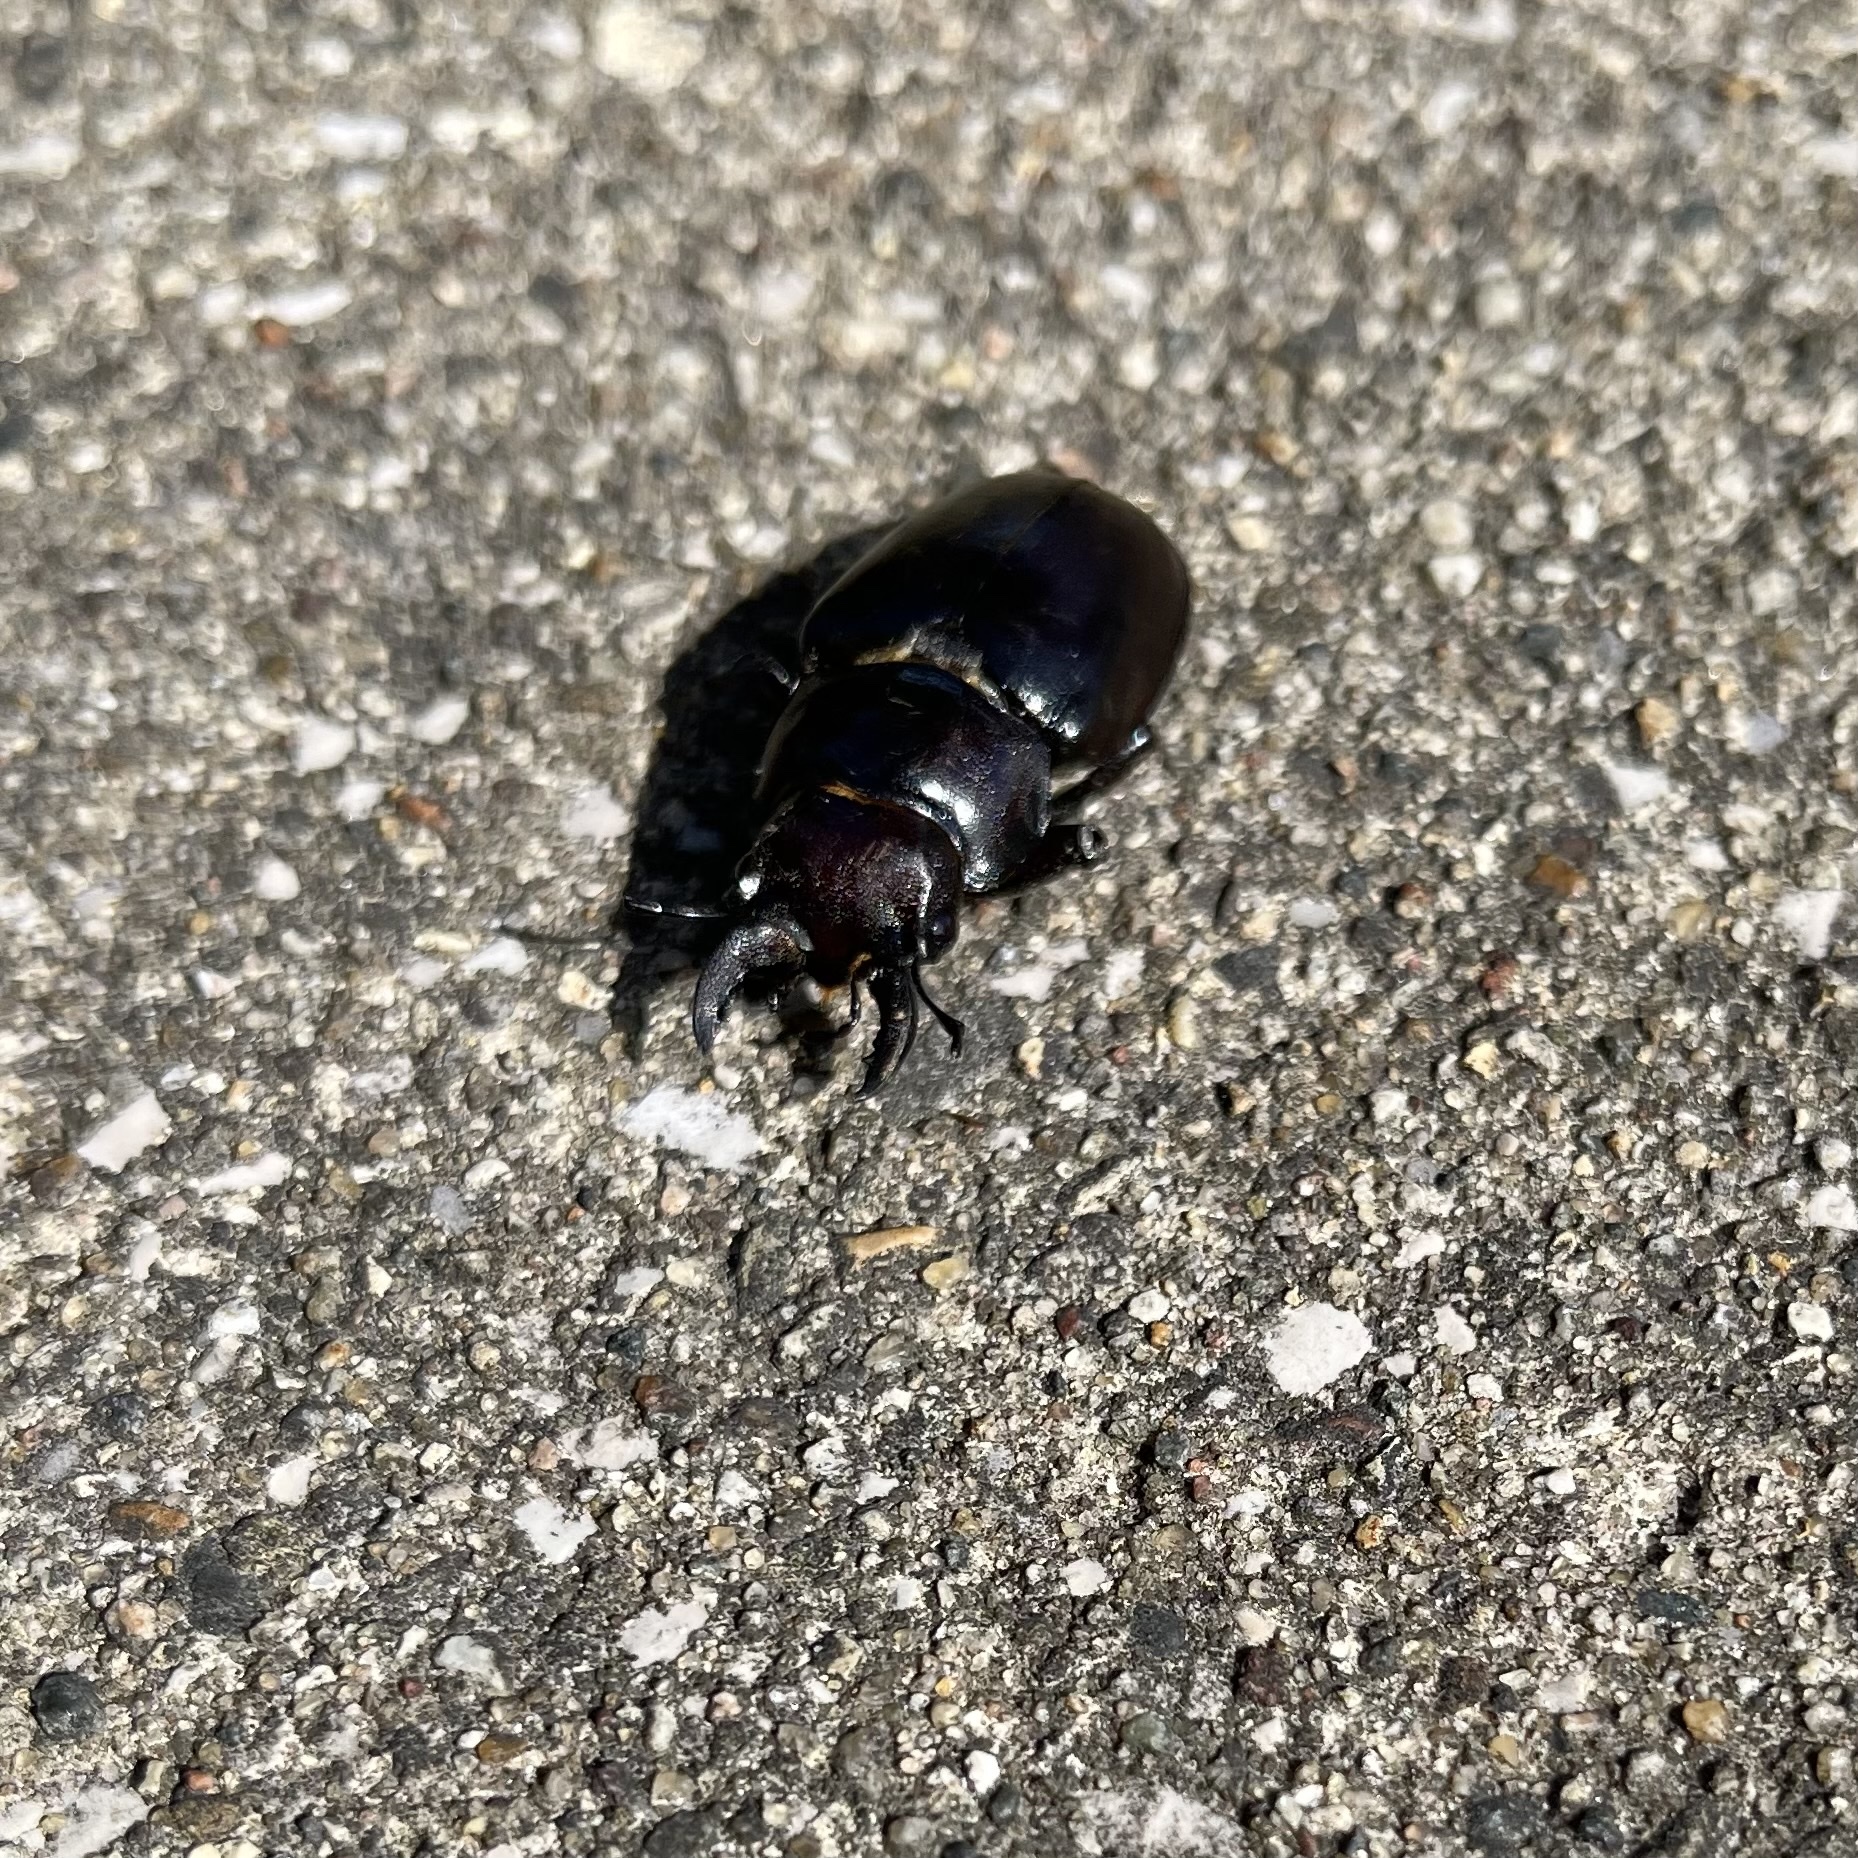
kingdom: Animalia
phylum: Arthropoda
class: Insecta
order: Coleoptera
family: Lucanidae
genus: Lucanus
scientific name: Lucanus placidus
